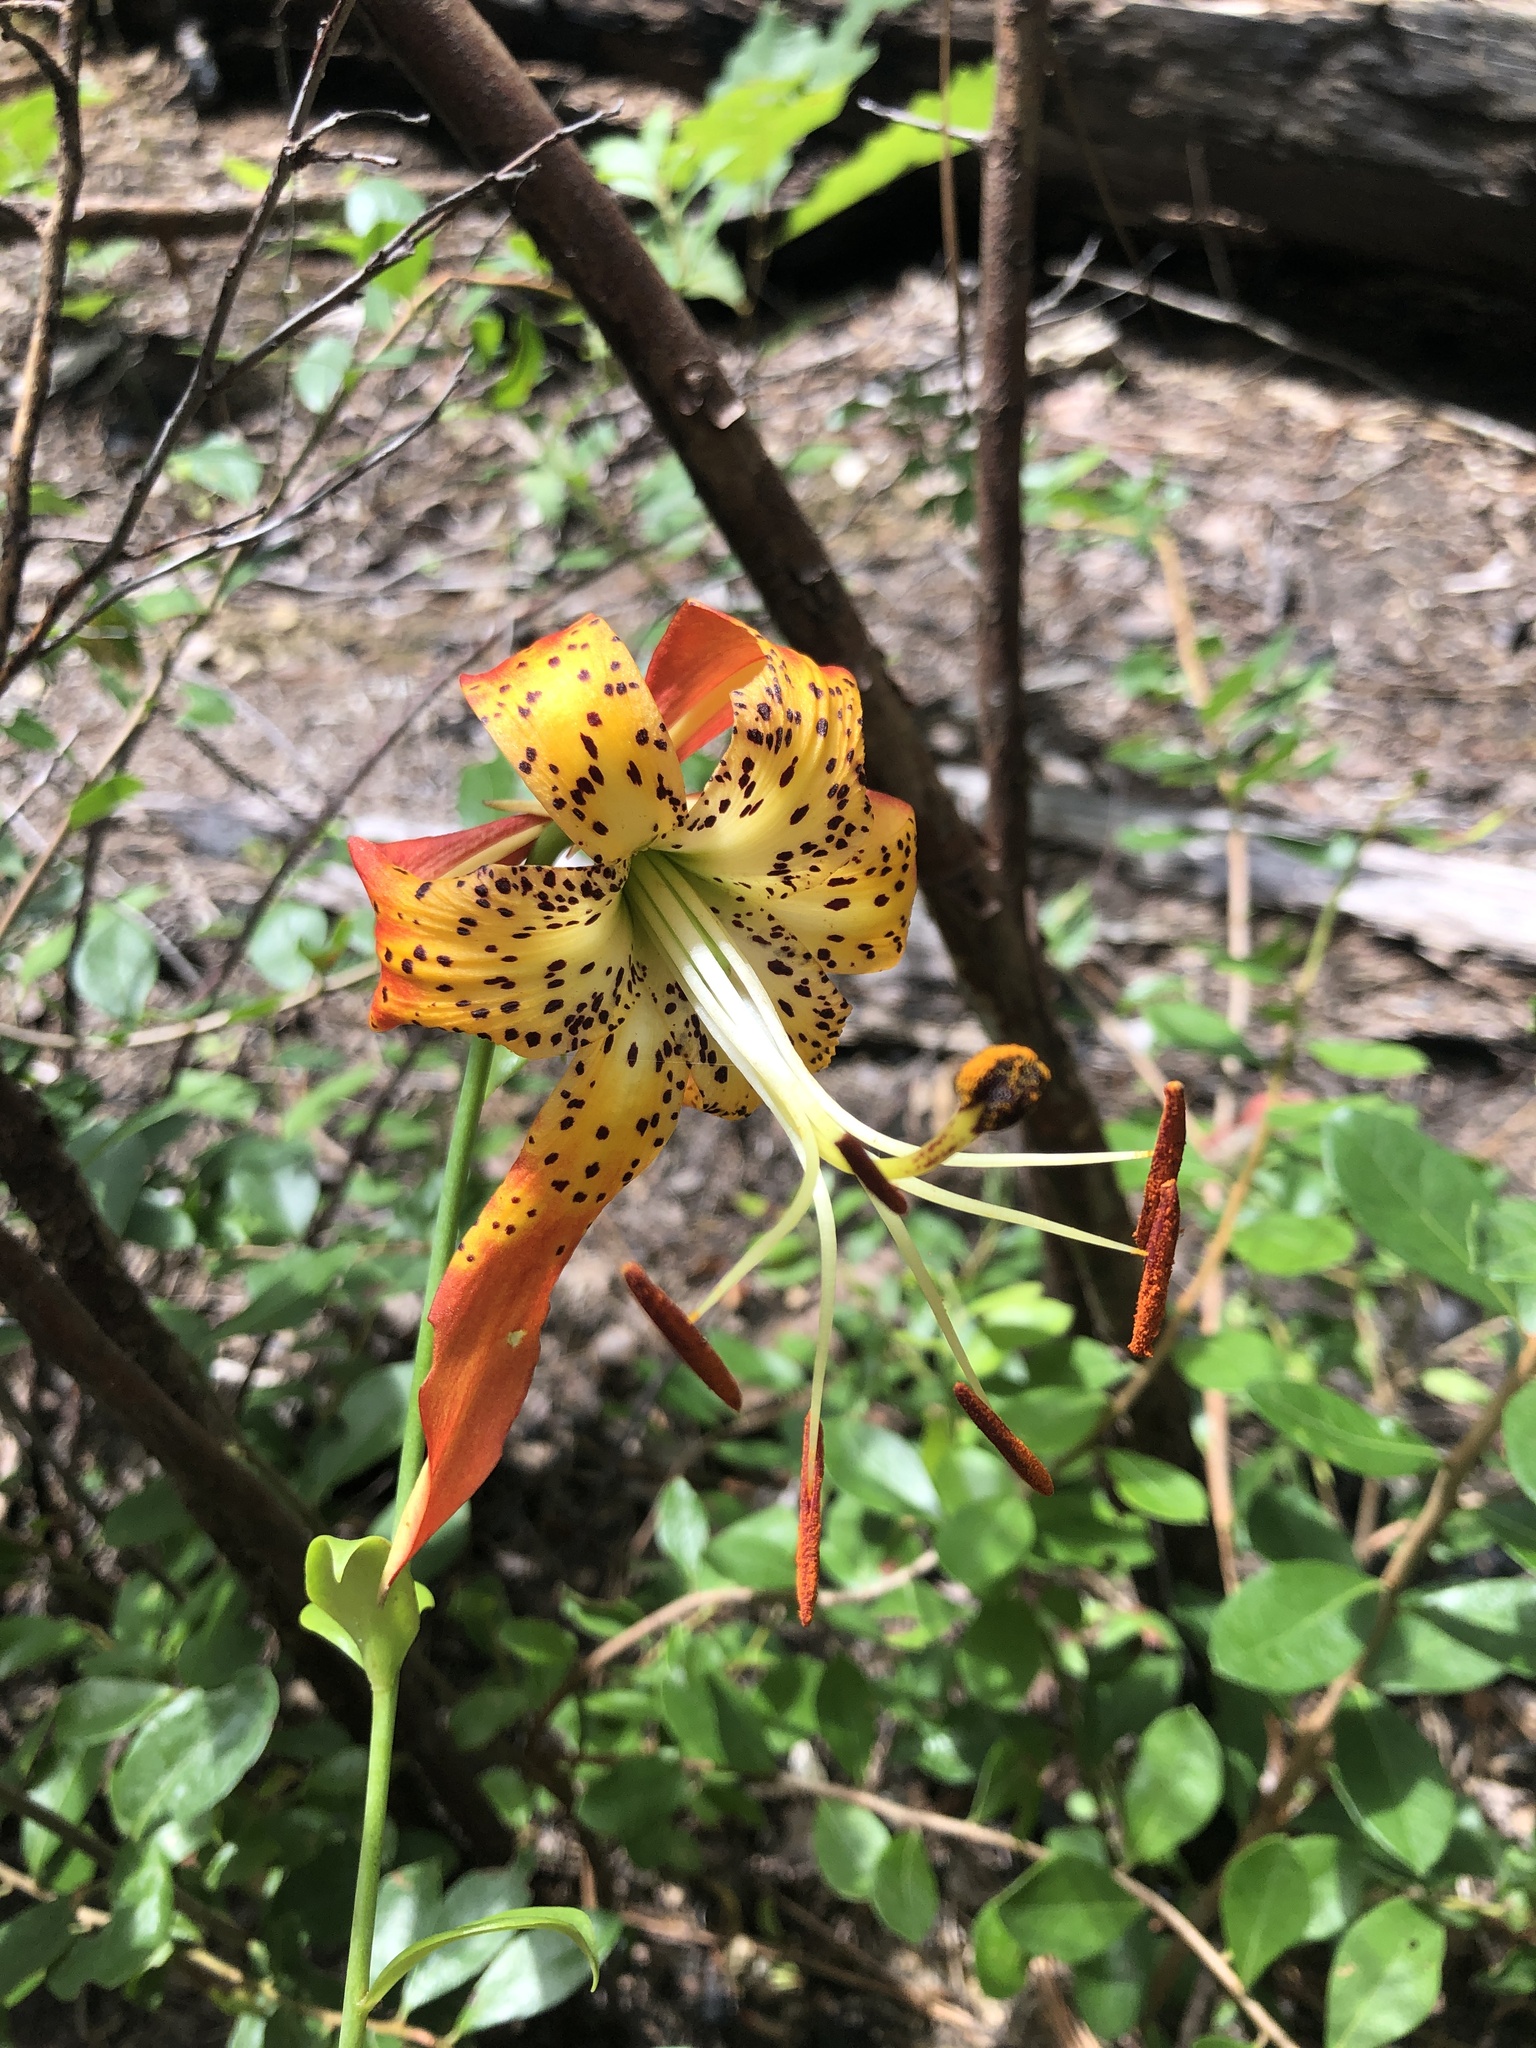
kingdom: Plantae
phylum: Tracheophyta
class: Liliopsida
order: Liliales
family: Liliaceae
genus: Lilium
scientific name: Lilium michauxii
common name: Carolina lily
